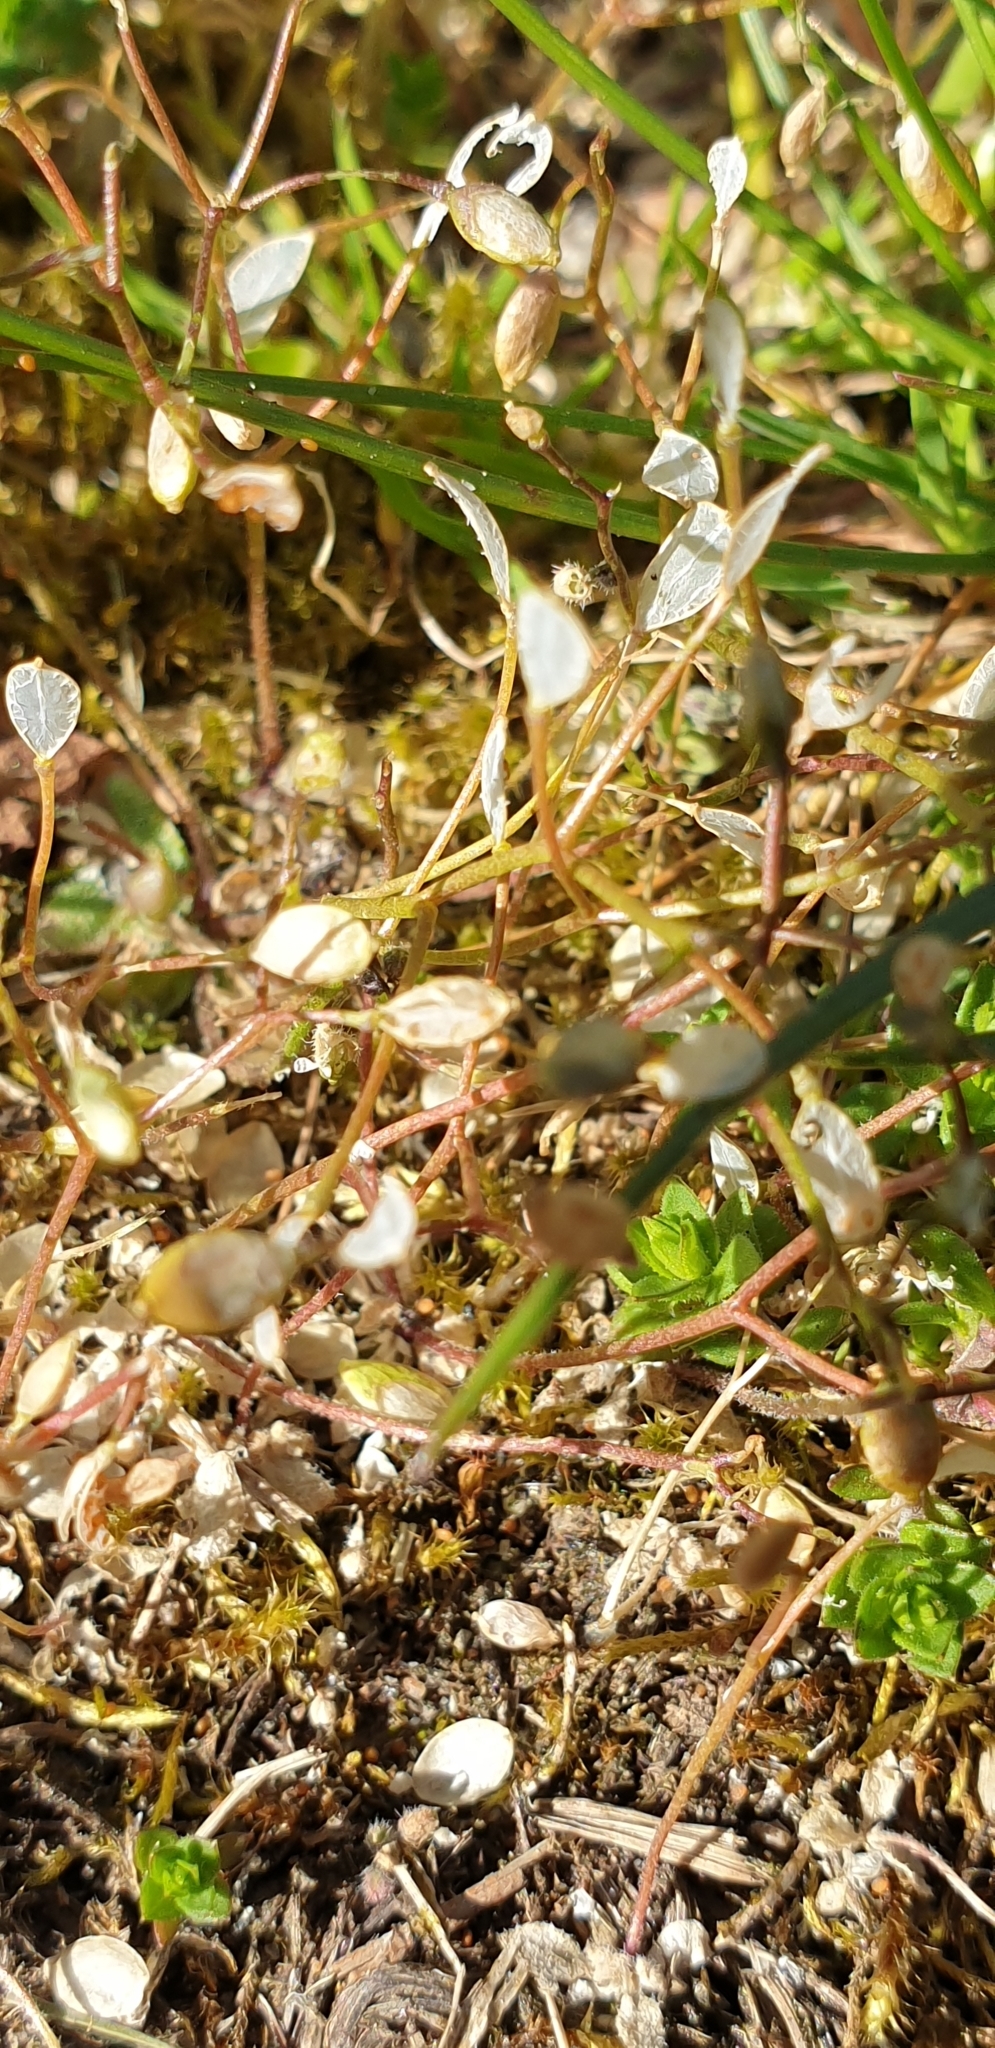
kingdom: Plantae
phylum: Tracheophyta
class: Magnoliopsida
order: Brassicales
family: Brassicaceae
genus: Draba
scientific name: Draba verna
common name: Spring draba
